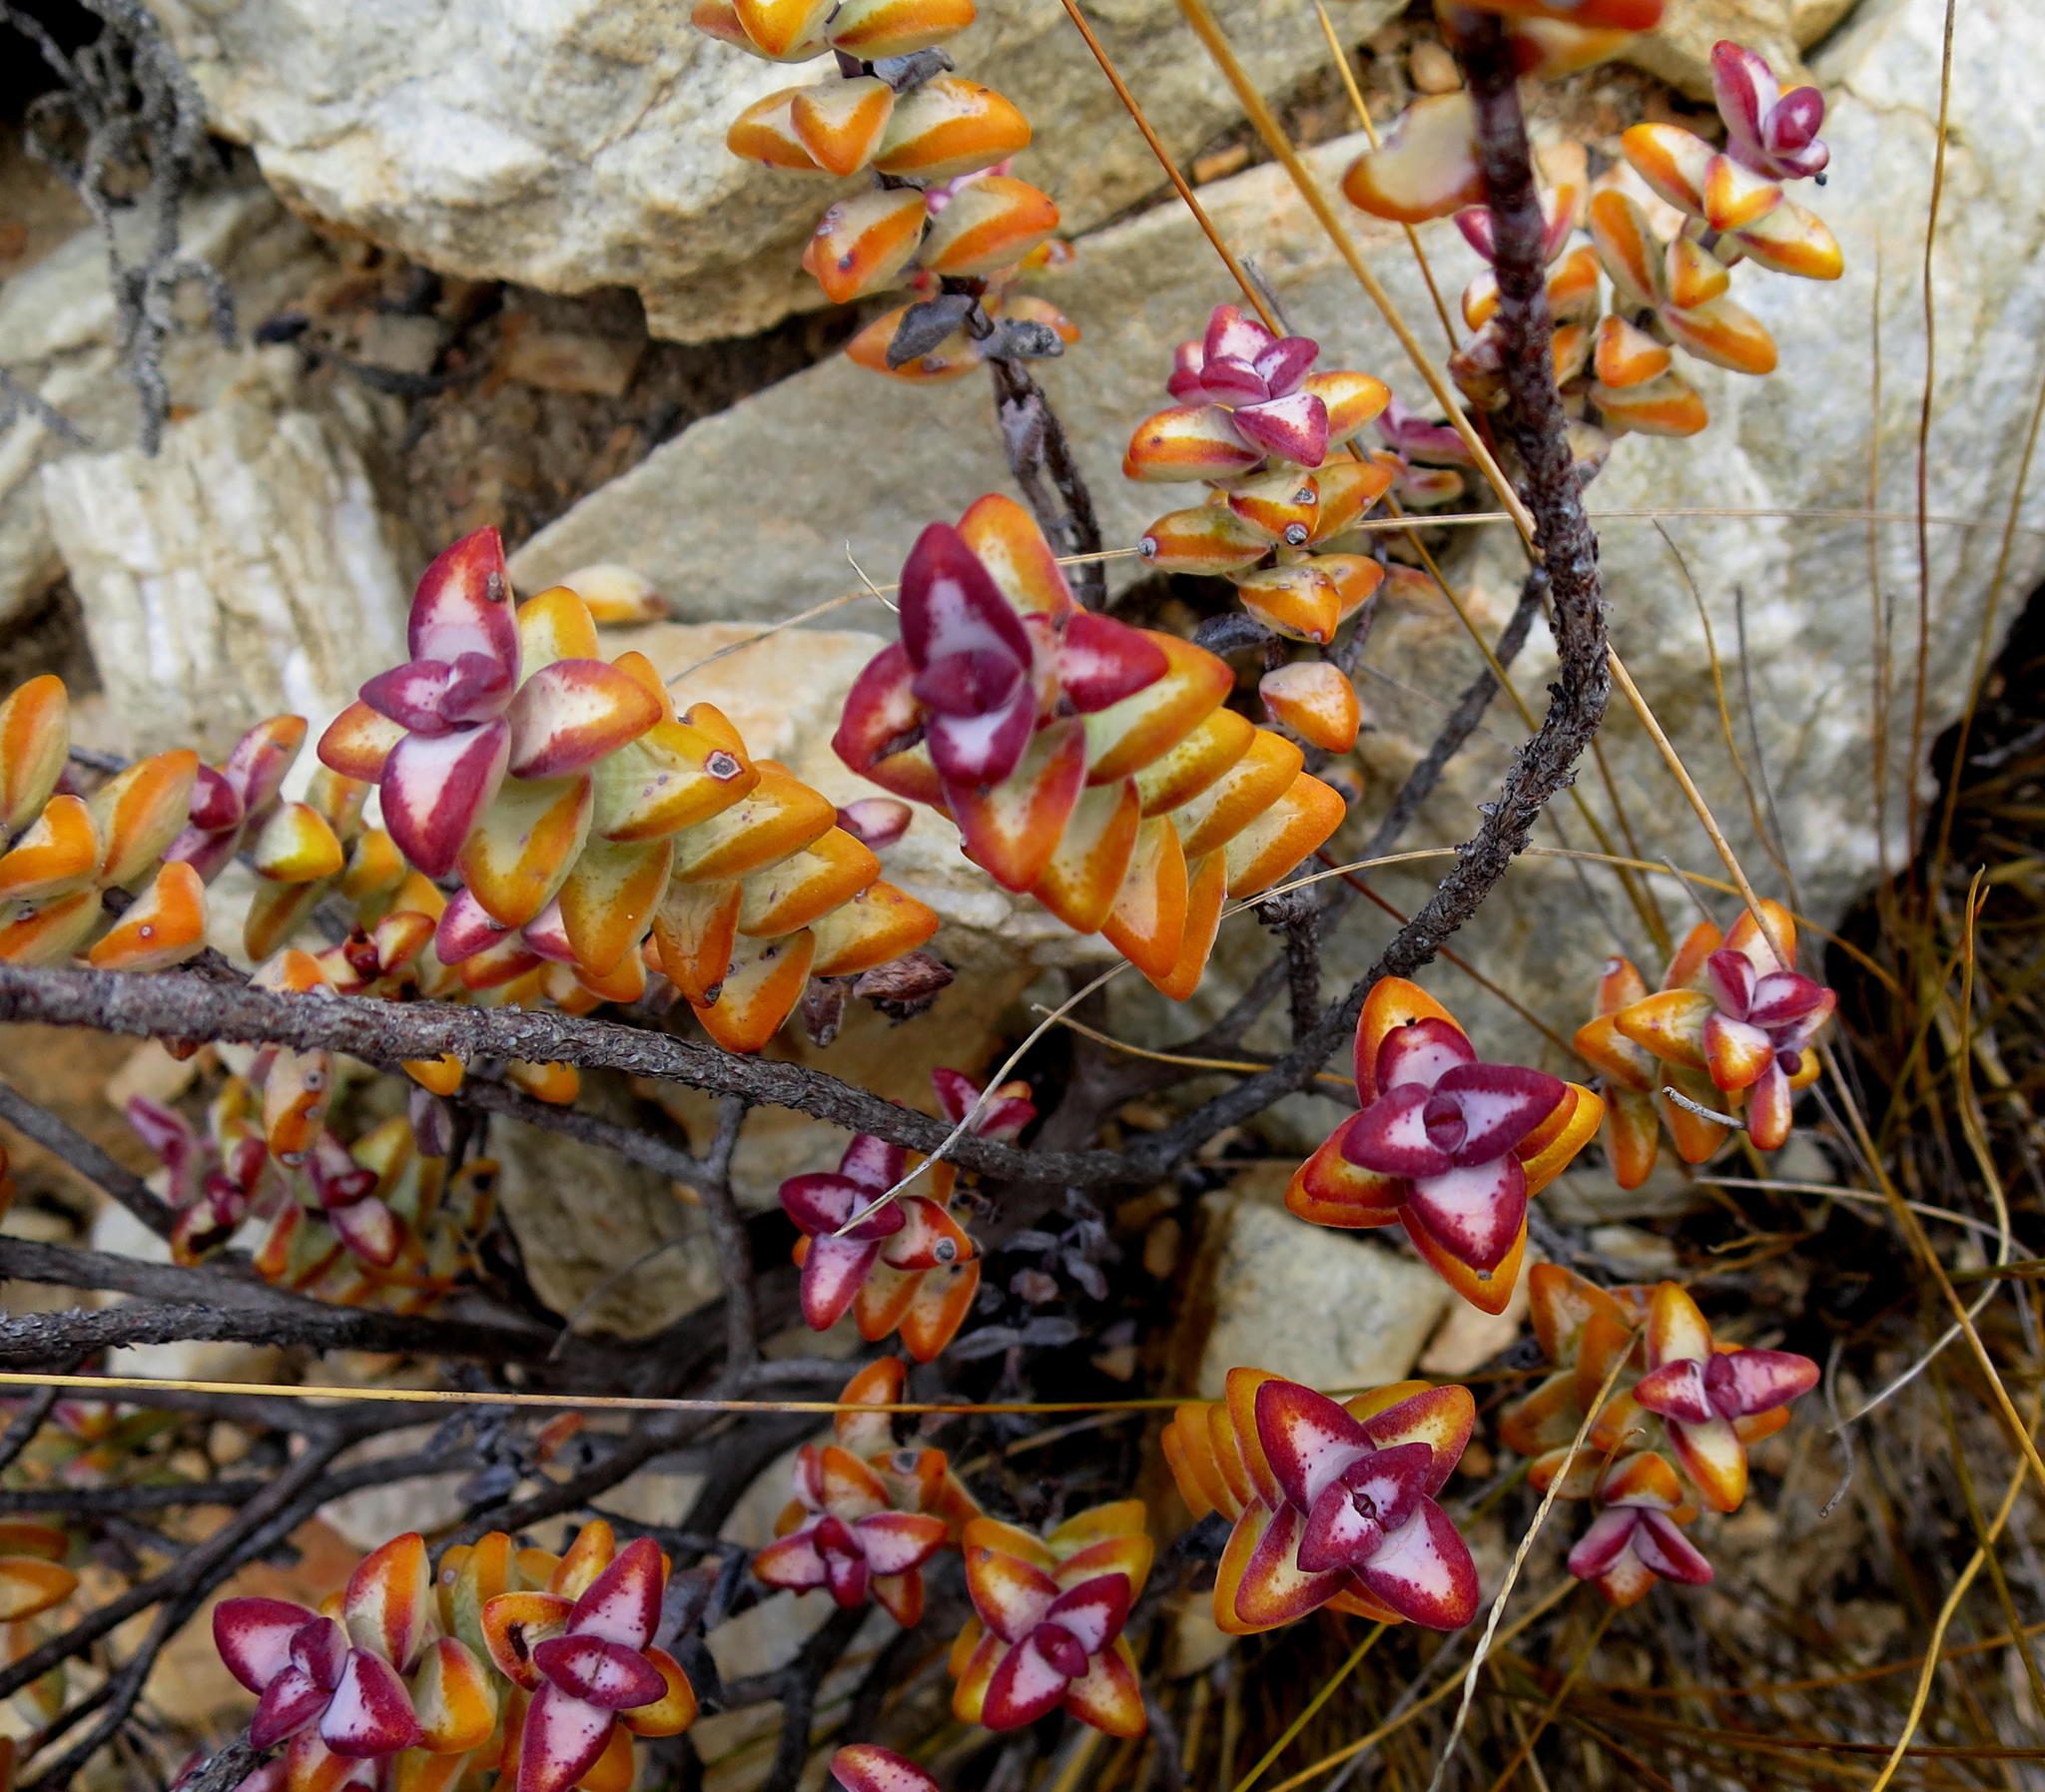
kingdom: Plantae
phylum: Tracheophyta
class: Magnoliopsida
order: Saxifragales
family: Crassulaceae
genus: Crassula
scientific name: Crassula rupestris
